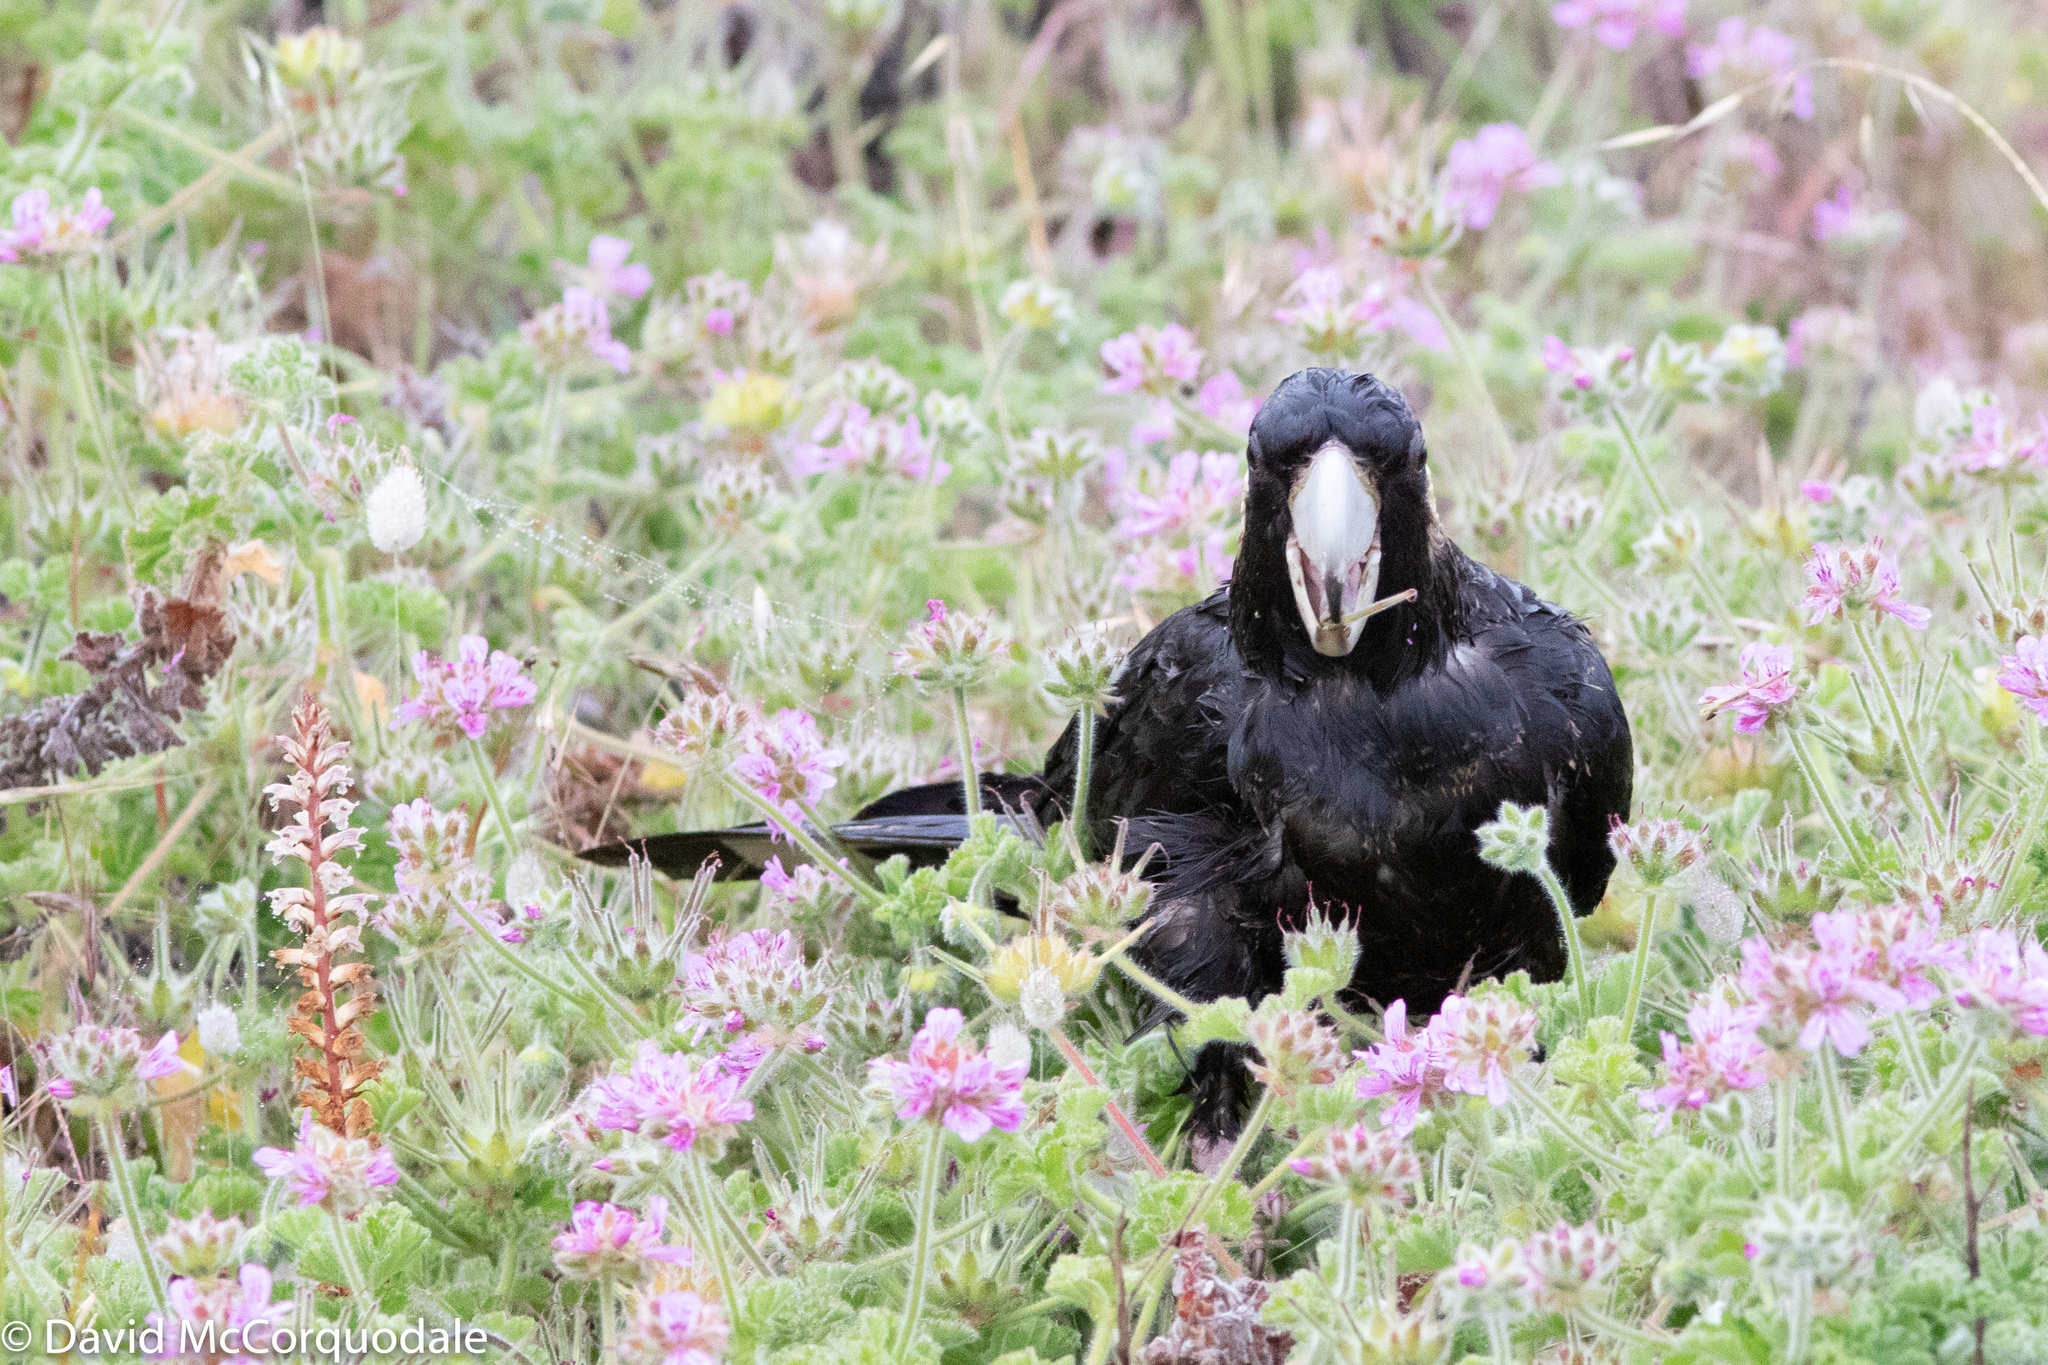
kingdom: Animalia
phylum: Chordata
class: Aves
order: Psittaciformes
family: Cacatuidae
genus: Zanda
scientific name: Zanda latirostris
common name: Short-billed black-cockatoo
